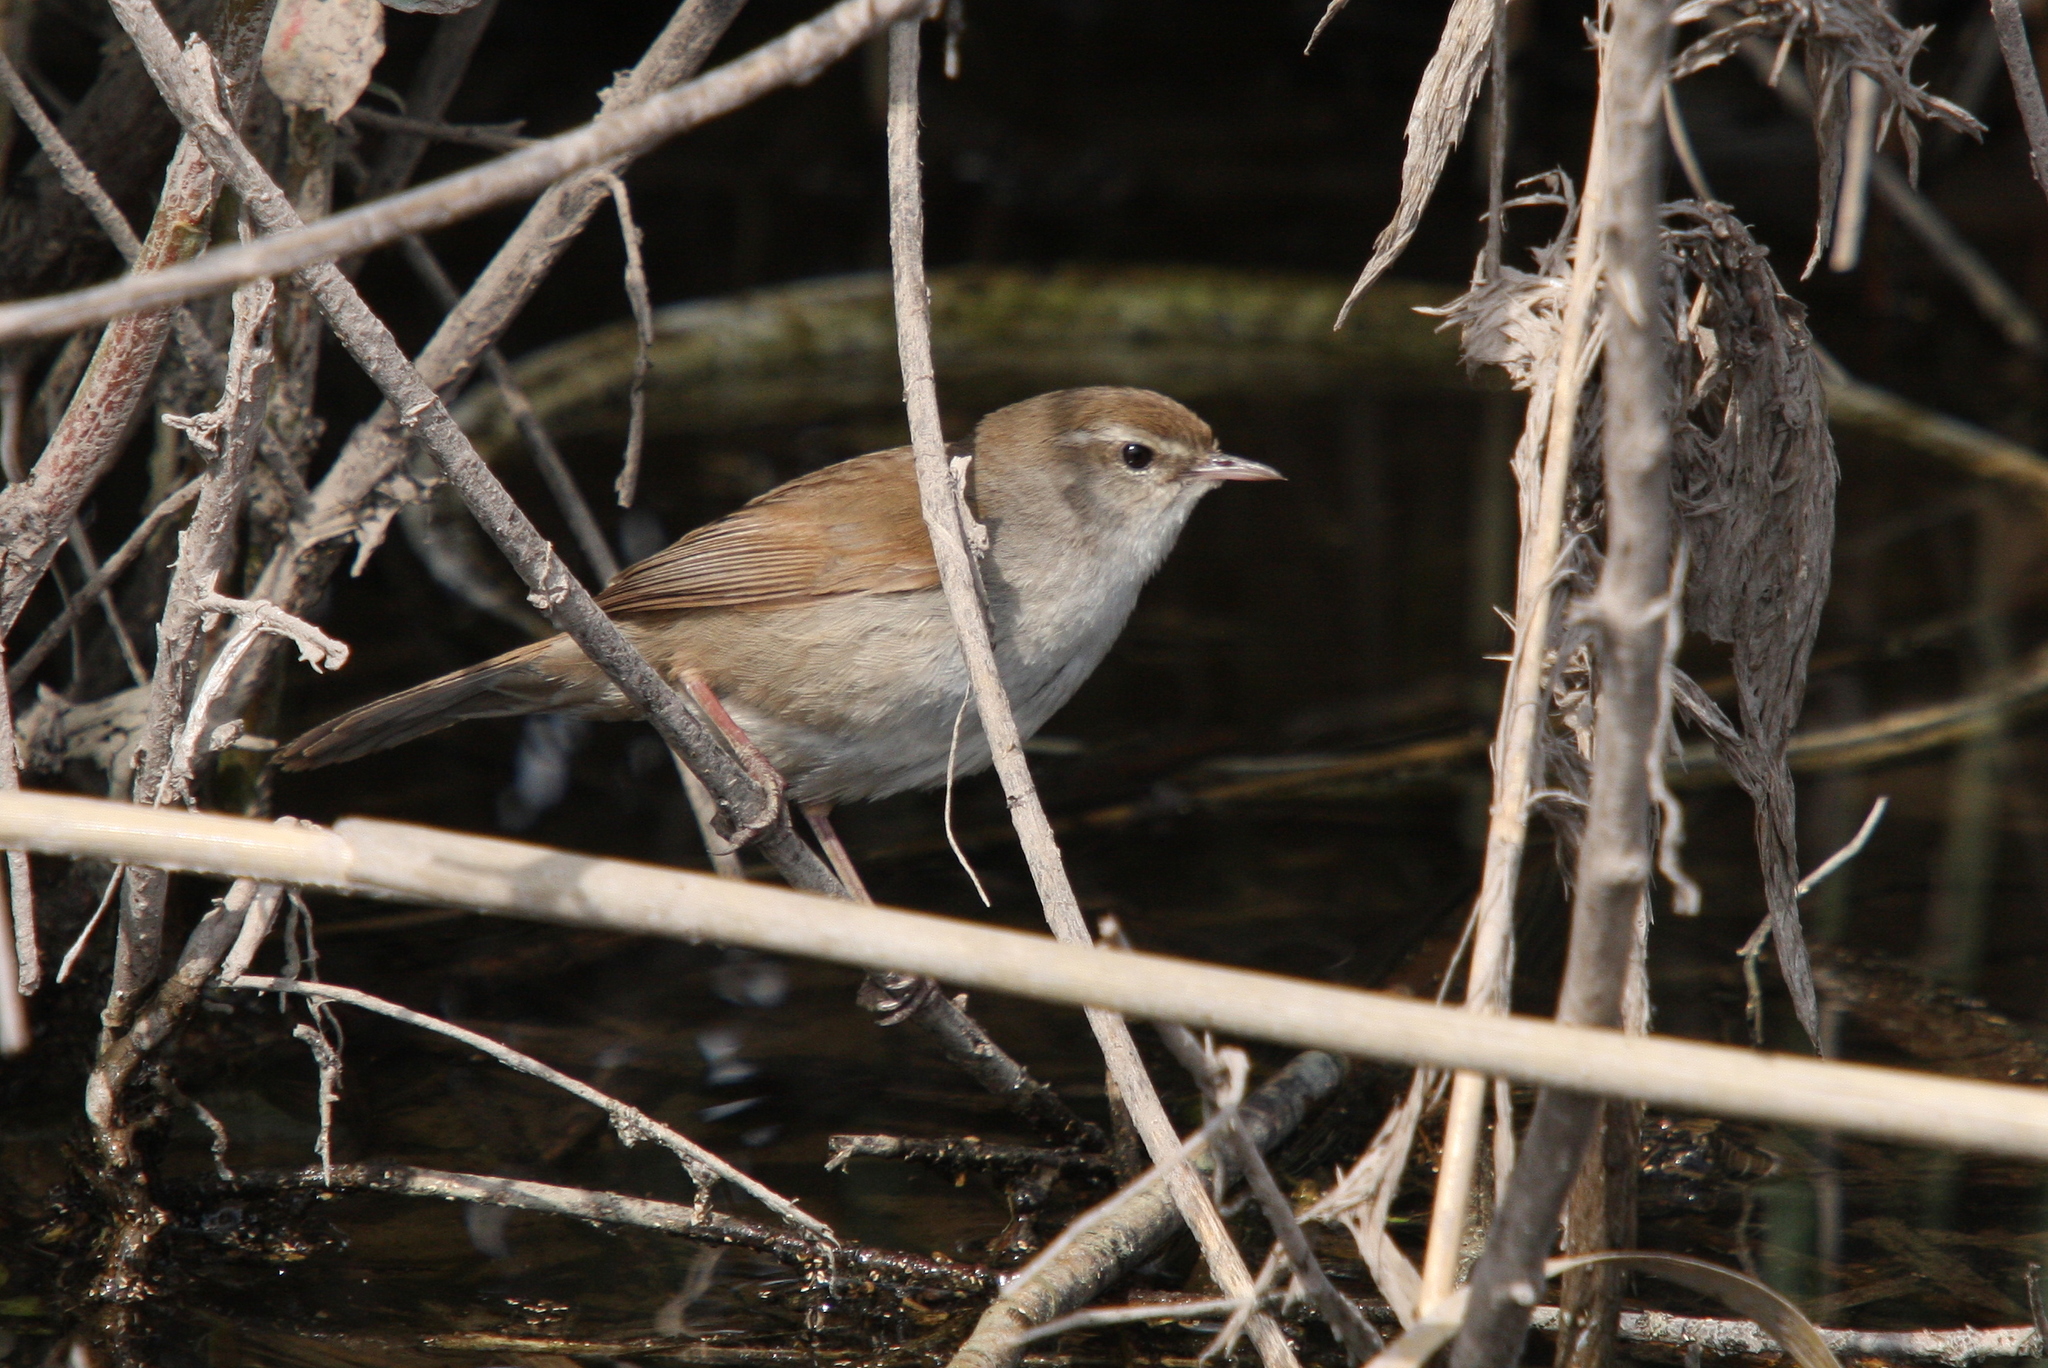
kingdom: Animalia
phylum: Chordata
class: Aves
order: Passeriformes
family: Cettiidae
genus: Cettia
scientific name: Cettia cetti
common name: Cetti's warbler
